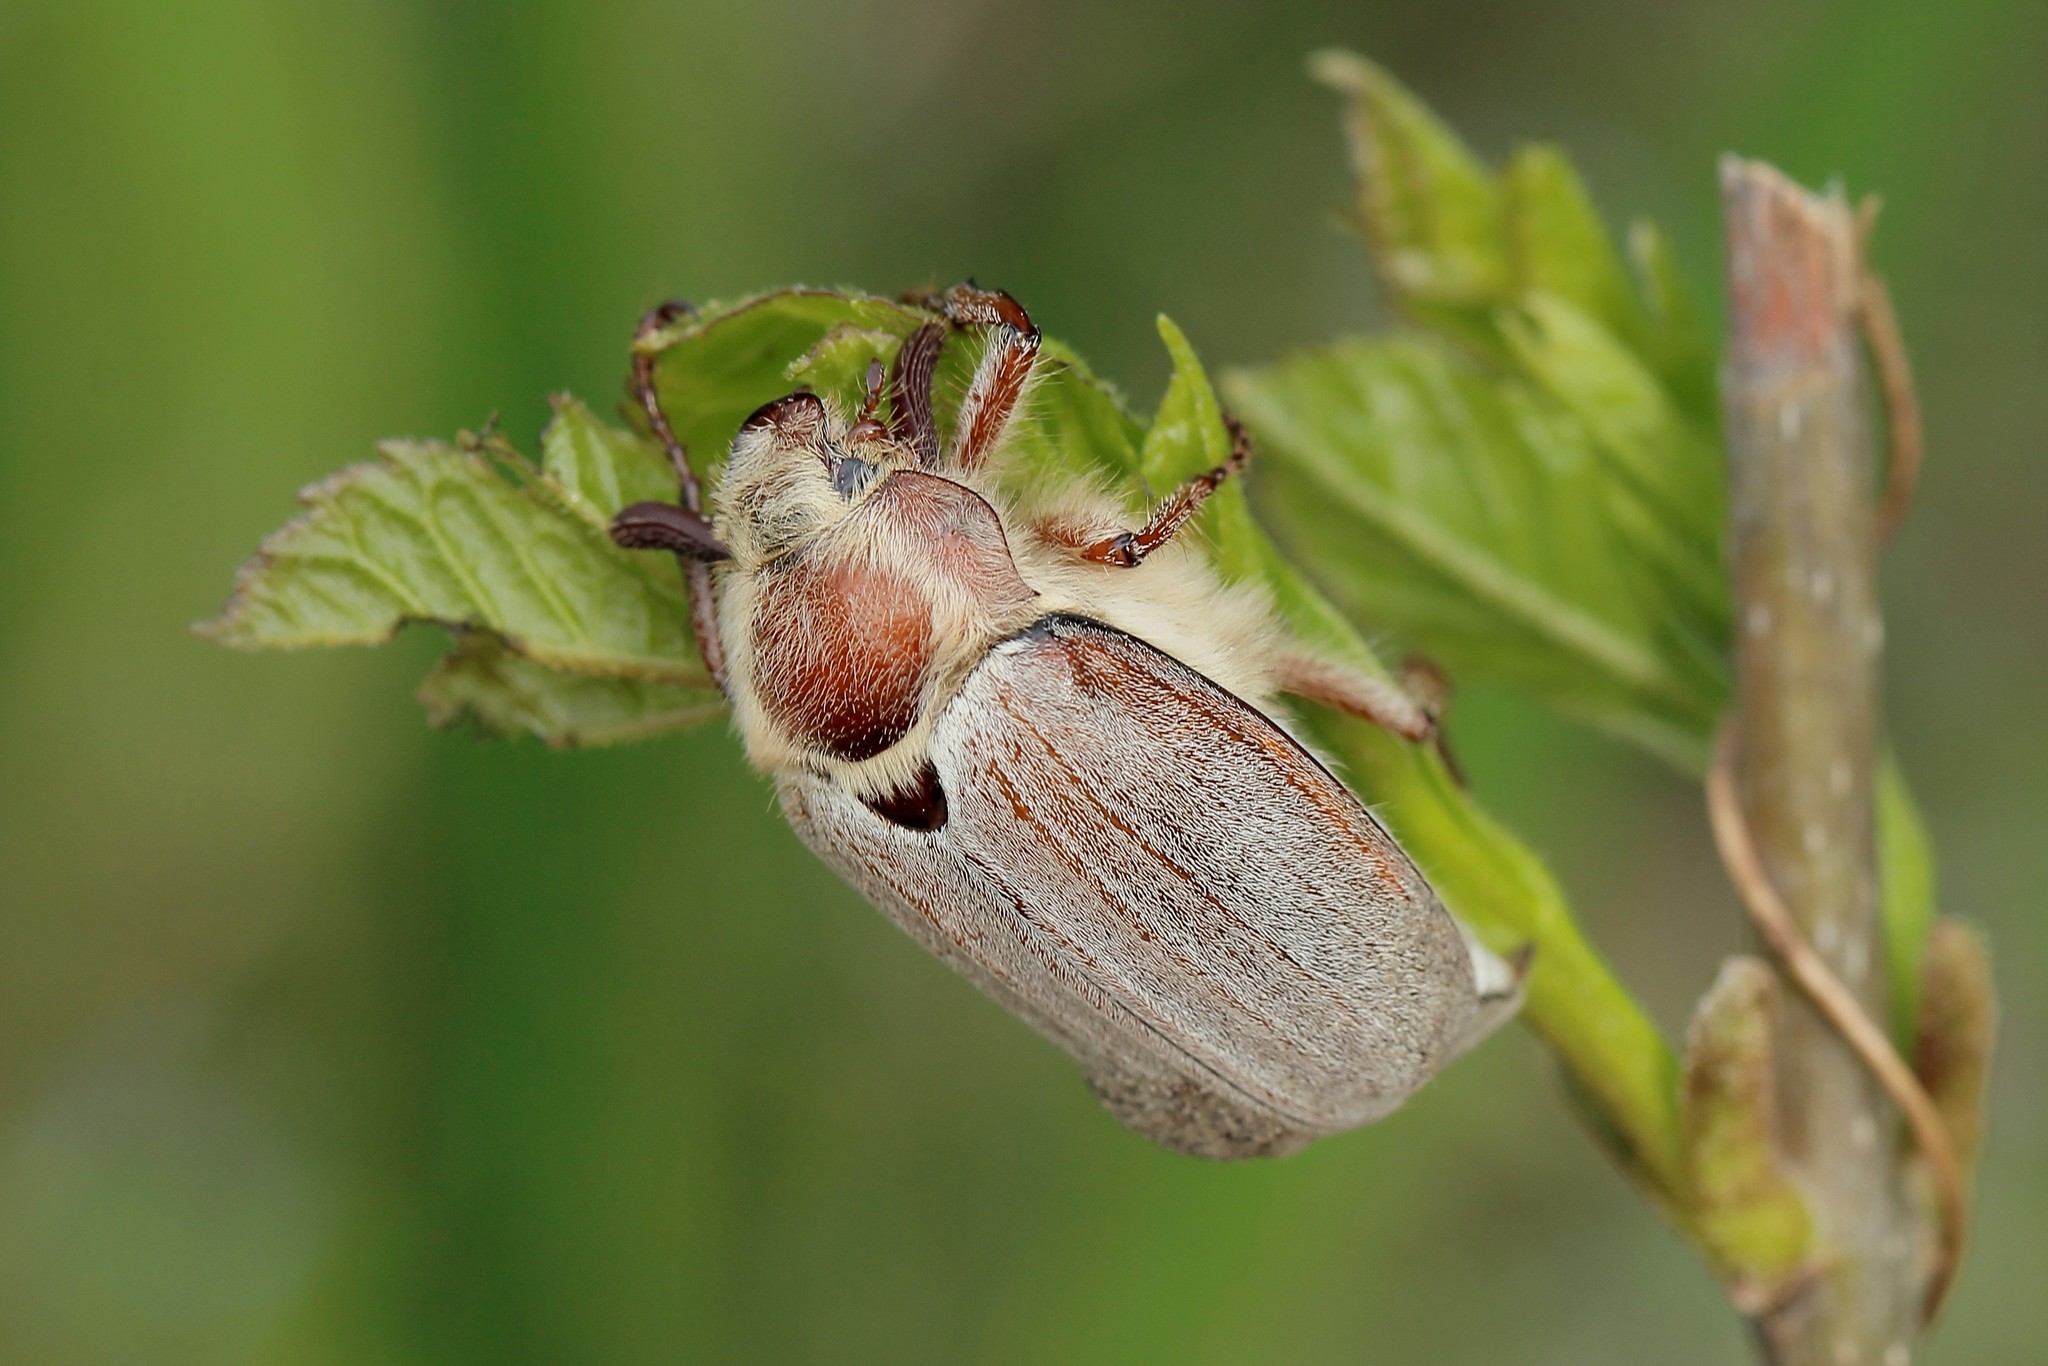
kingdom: Animalia
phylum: Arthropoda
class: Insecta
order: Coleoptera
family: Scarabaeidae
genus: Melolontha
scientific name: Melolontha hippocastani
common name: Chestnut cockchafer
